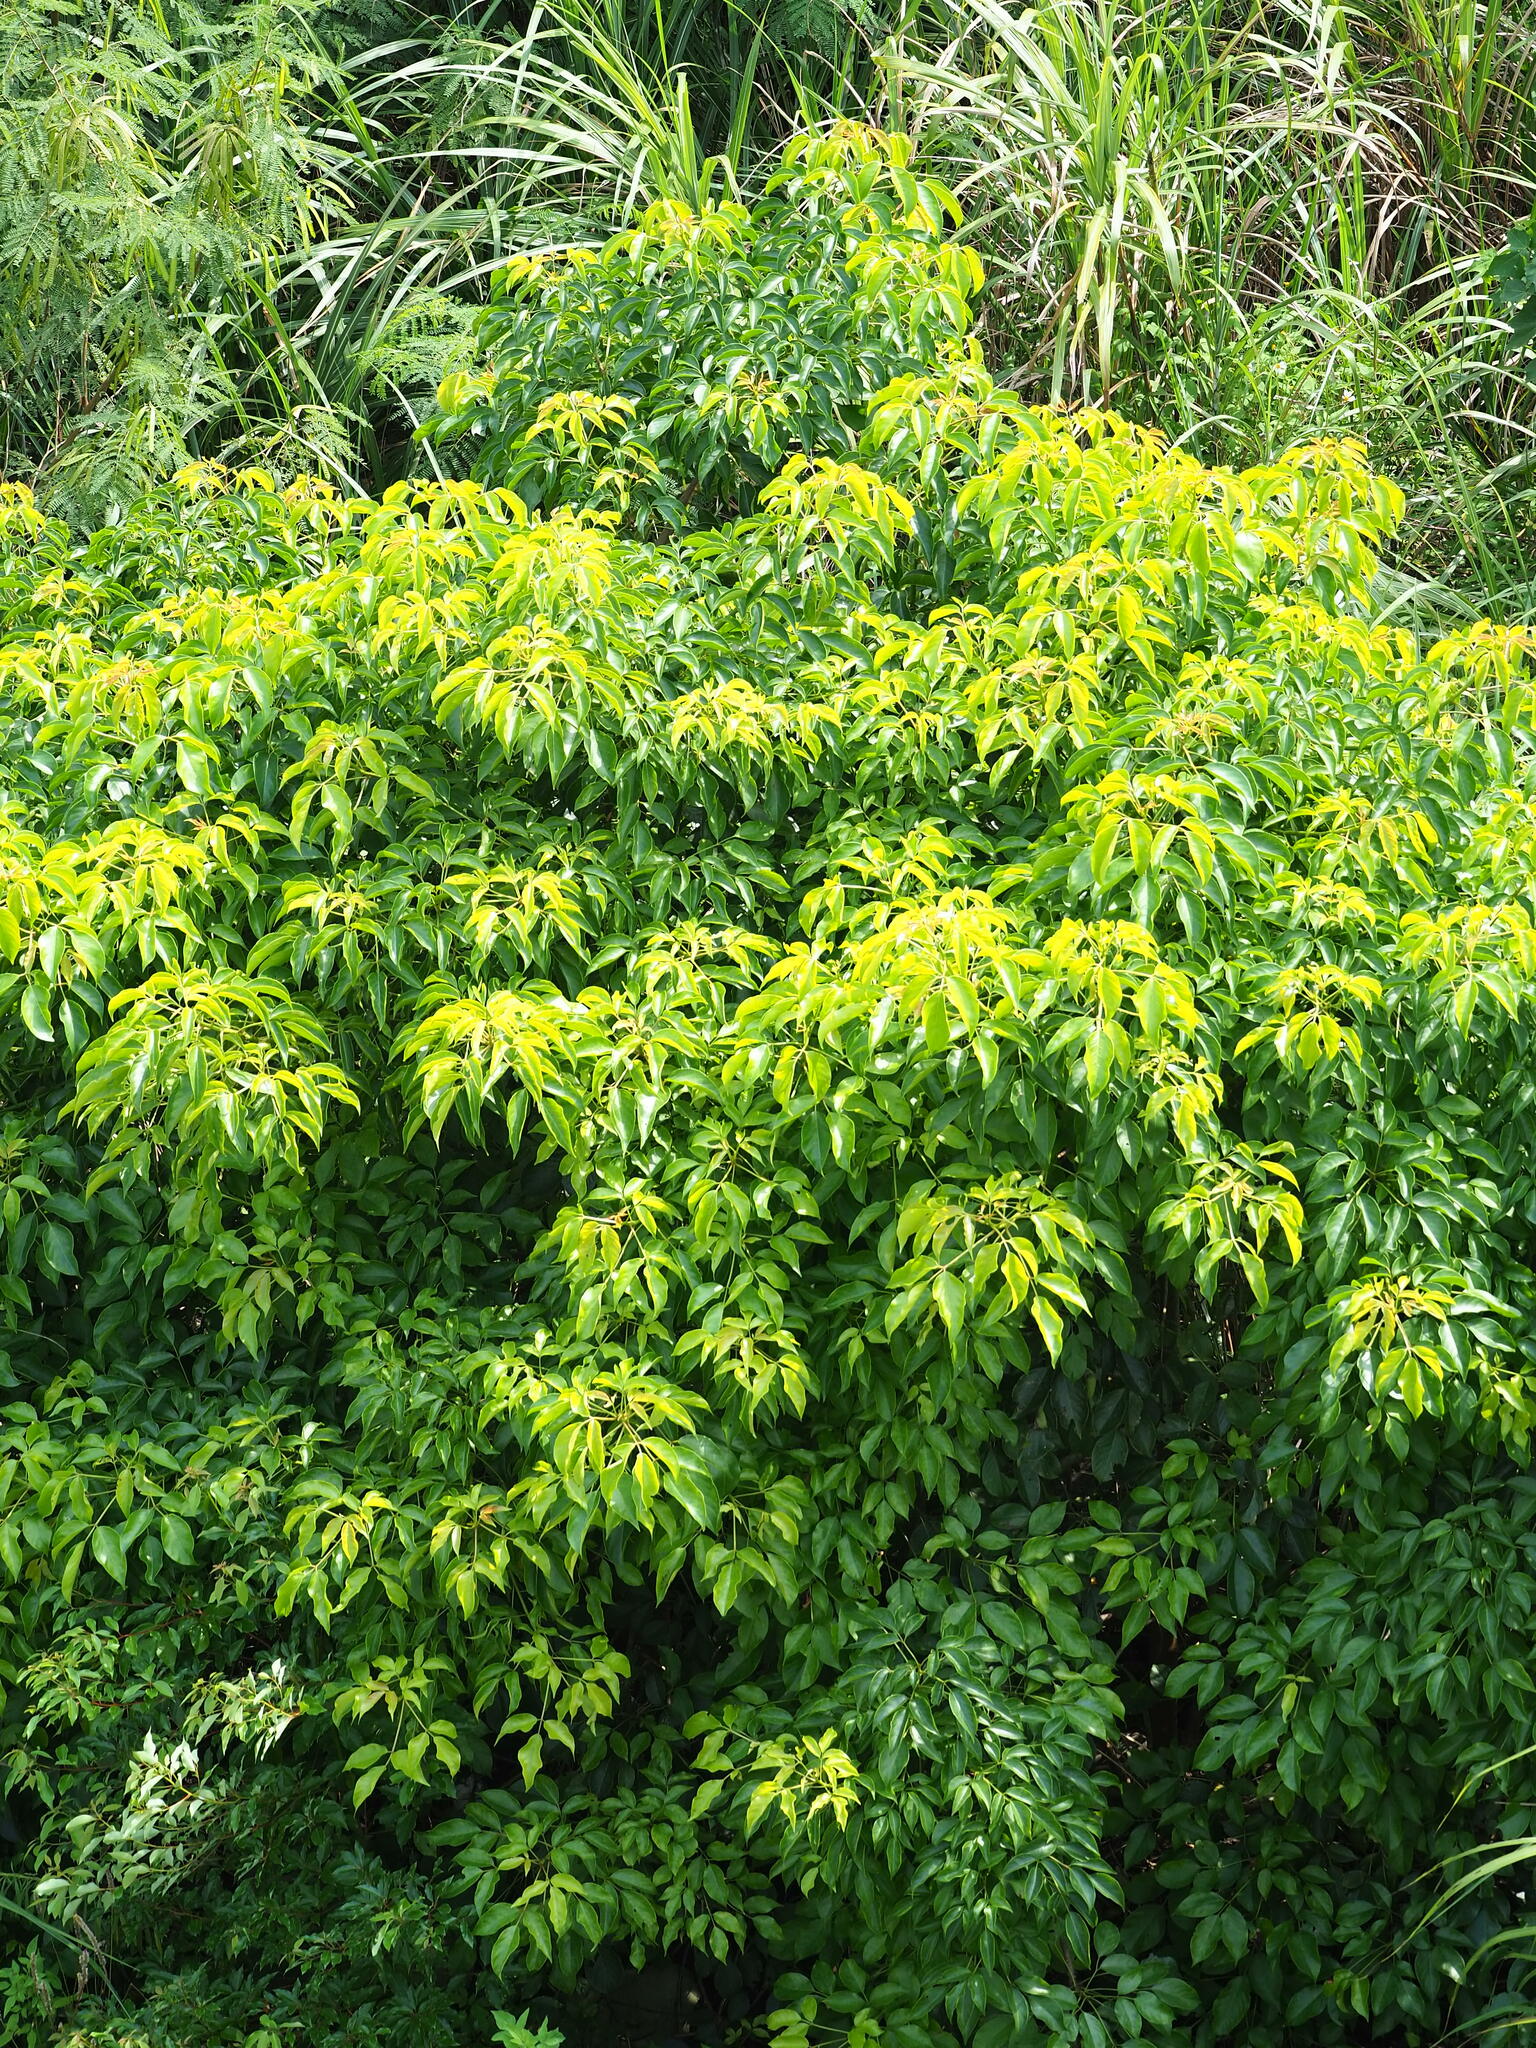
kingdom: Plantae
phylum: Tracheophyta
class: Magnoliopsida
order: Laurales
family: Lauraceae
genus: Cinnamomum
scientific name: Cinnamomum camphora
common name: Camphortree
